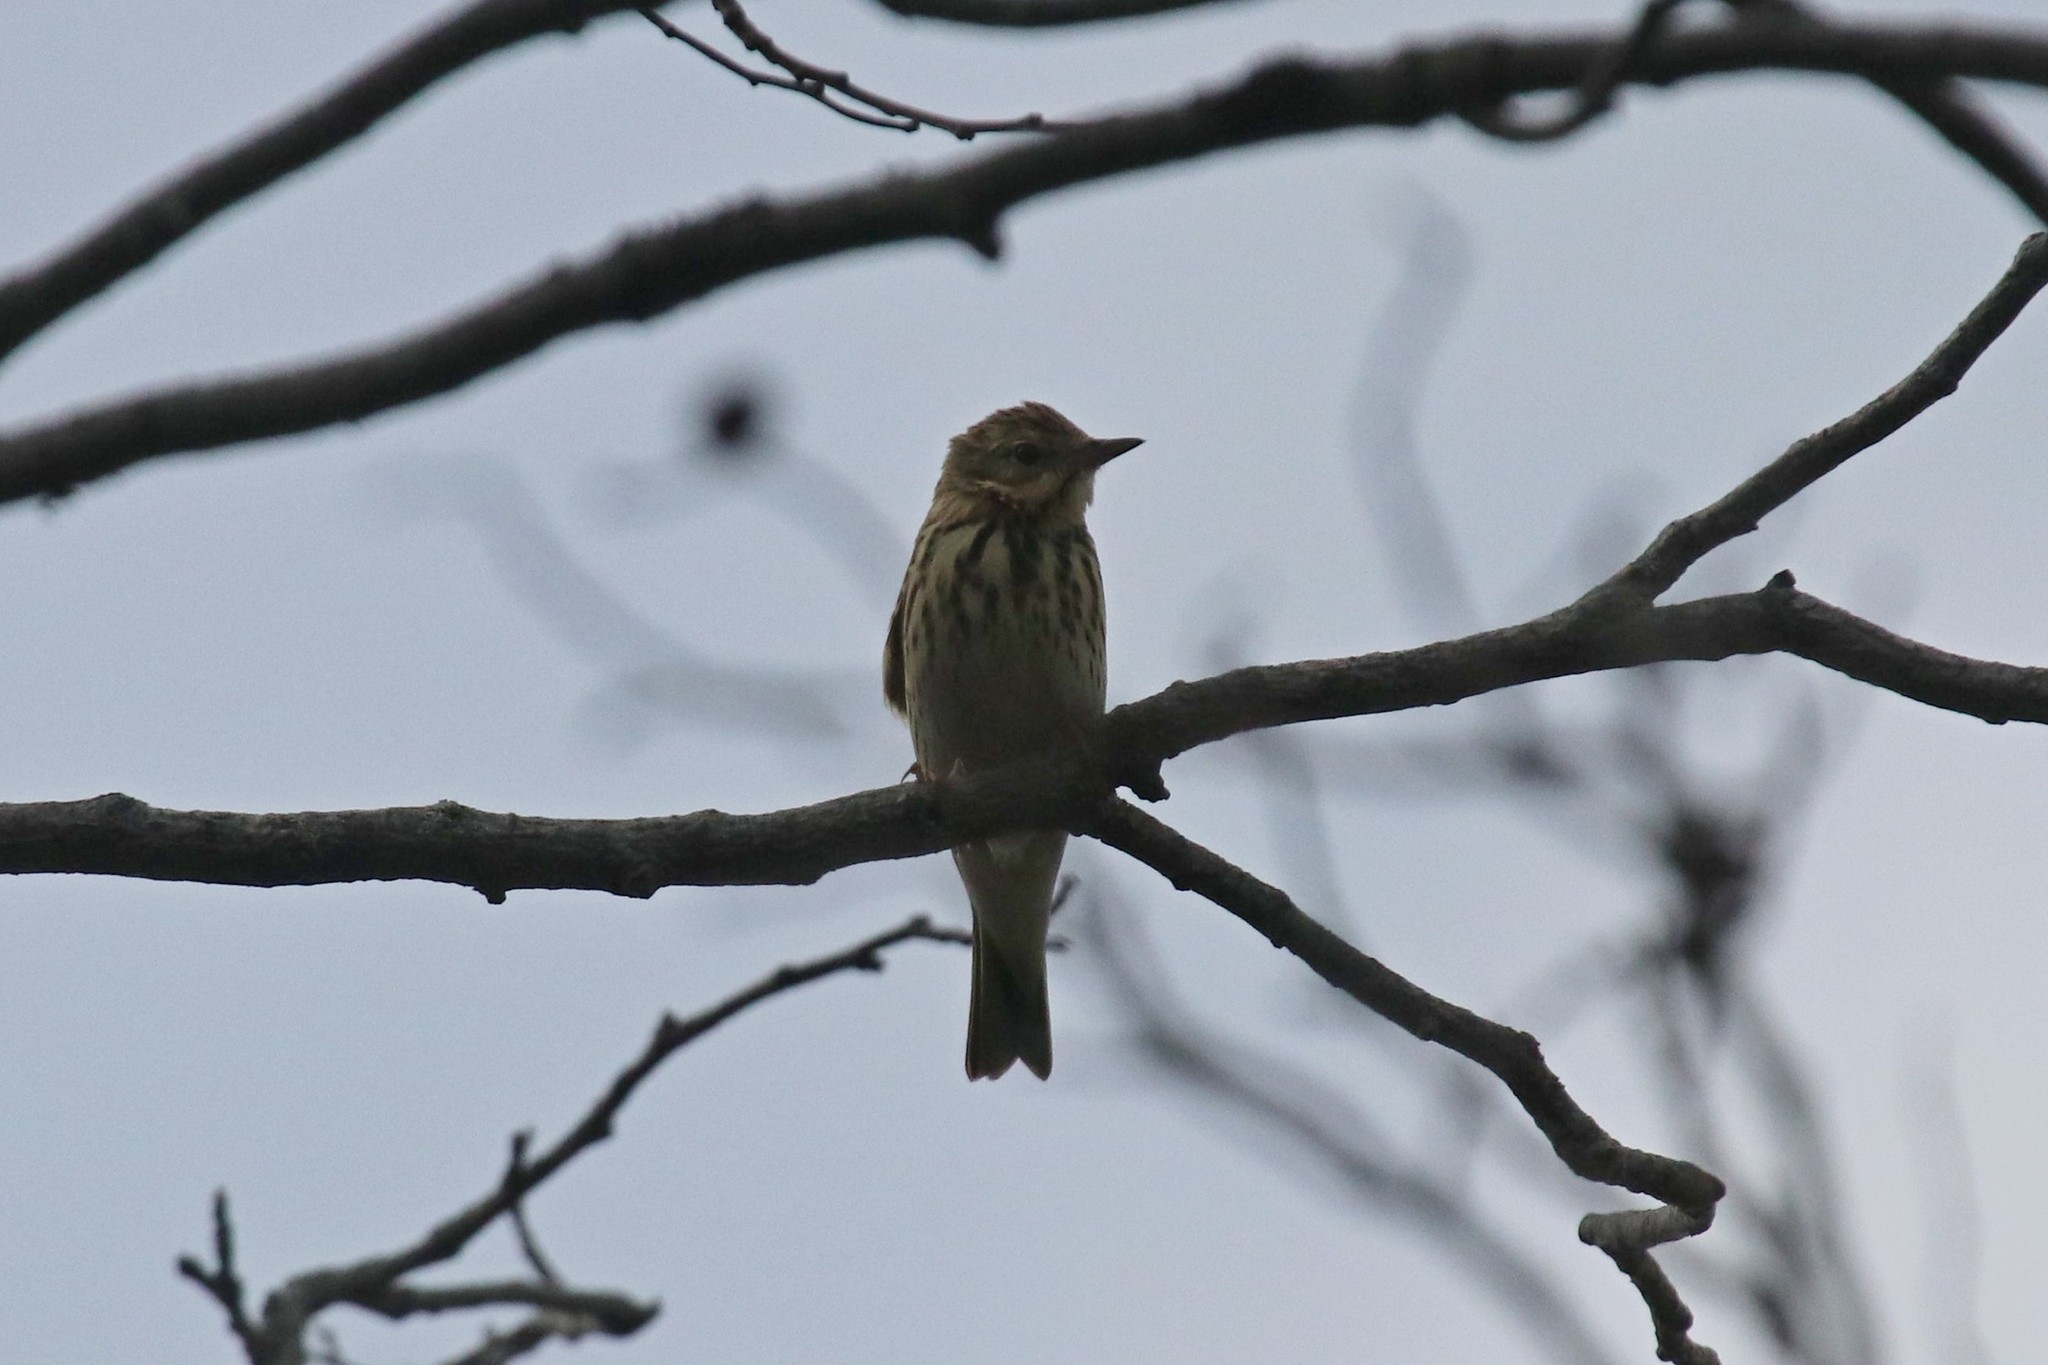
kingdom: Animalia
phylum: Chordata
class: Aves
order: Passeriformes
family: Motacillidae
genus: Anthus
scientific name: Anthus trivialis
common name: Tree pipit
